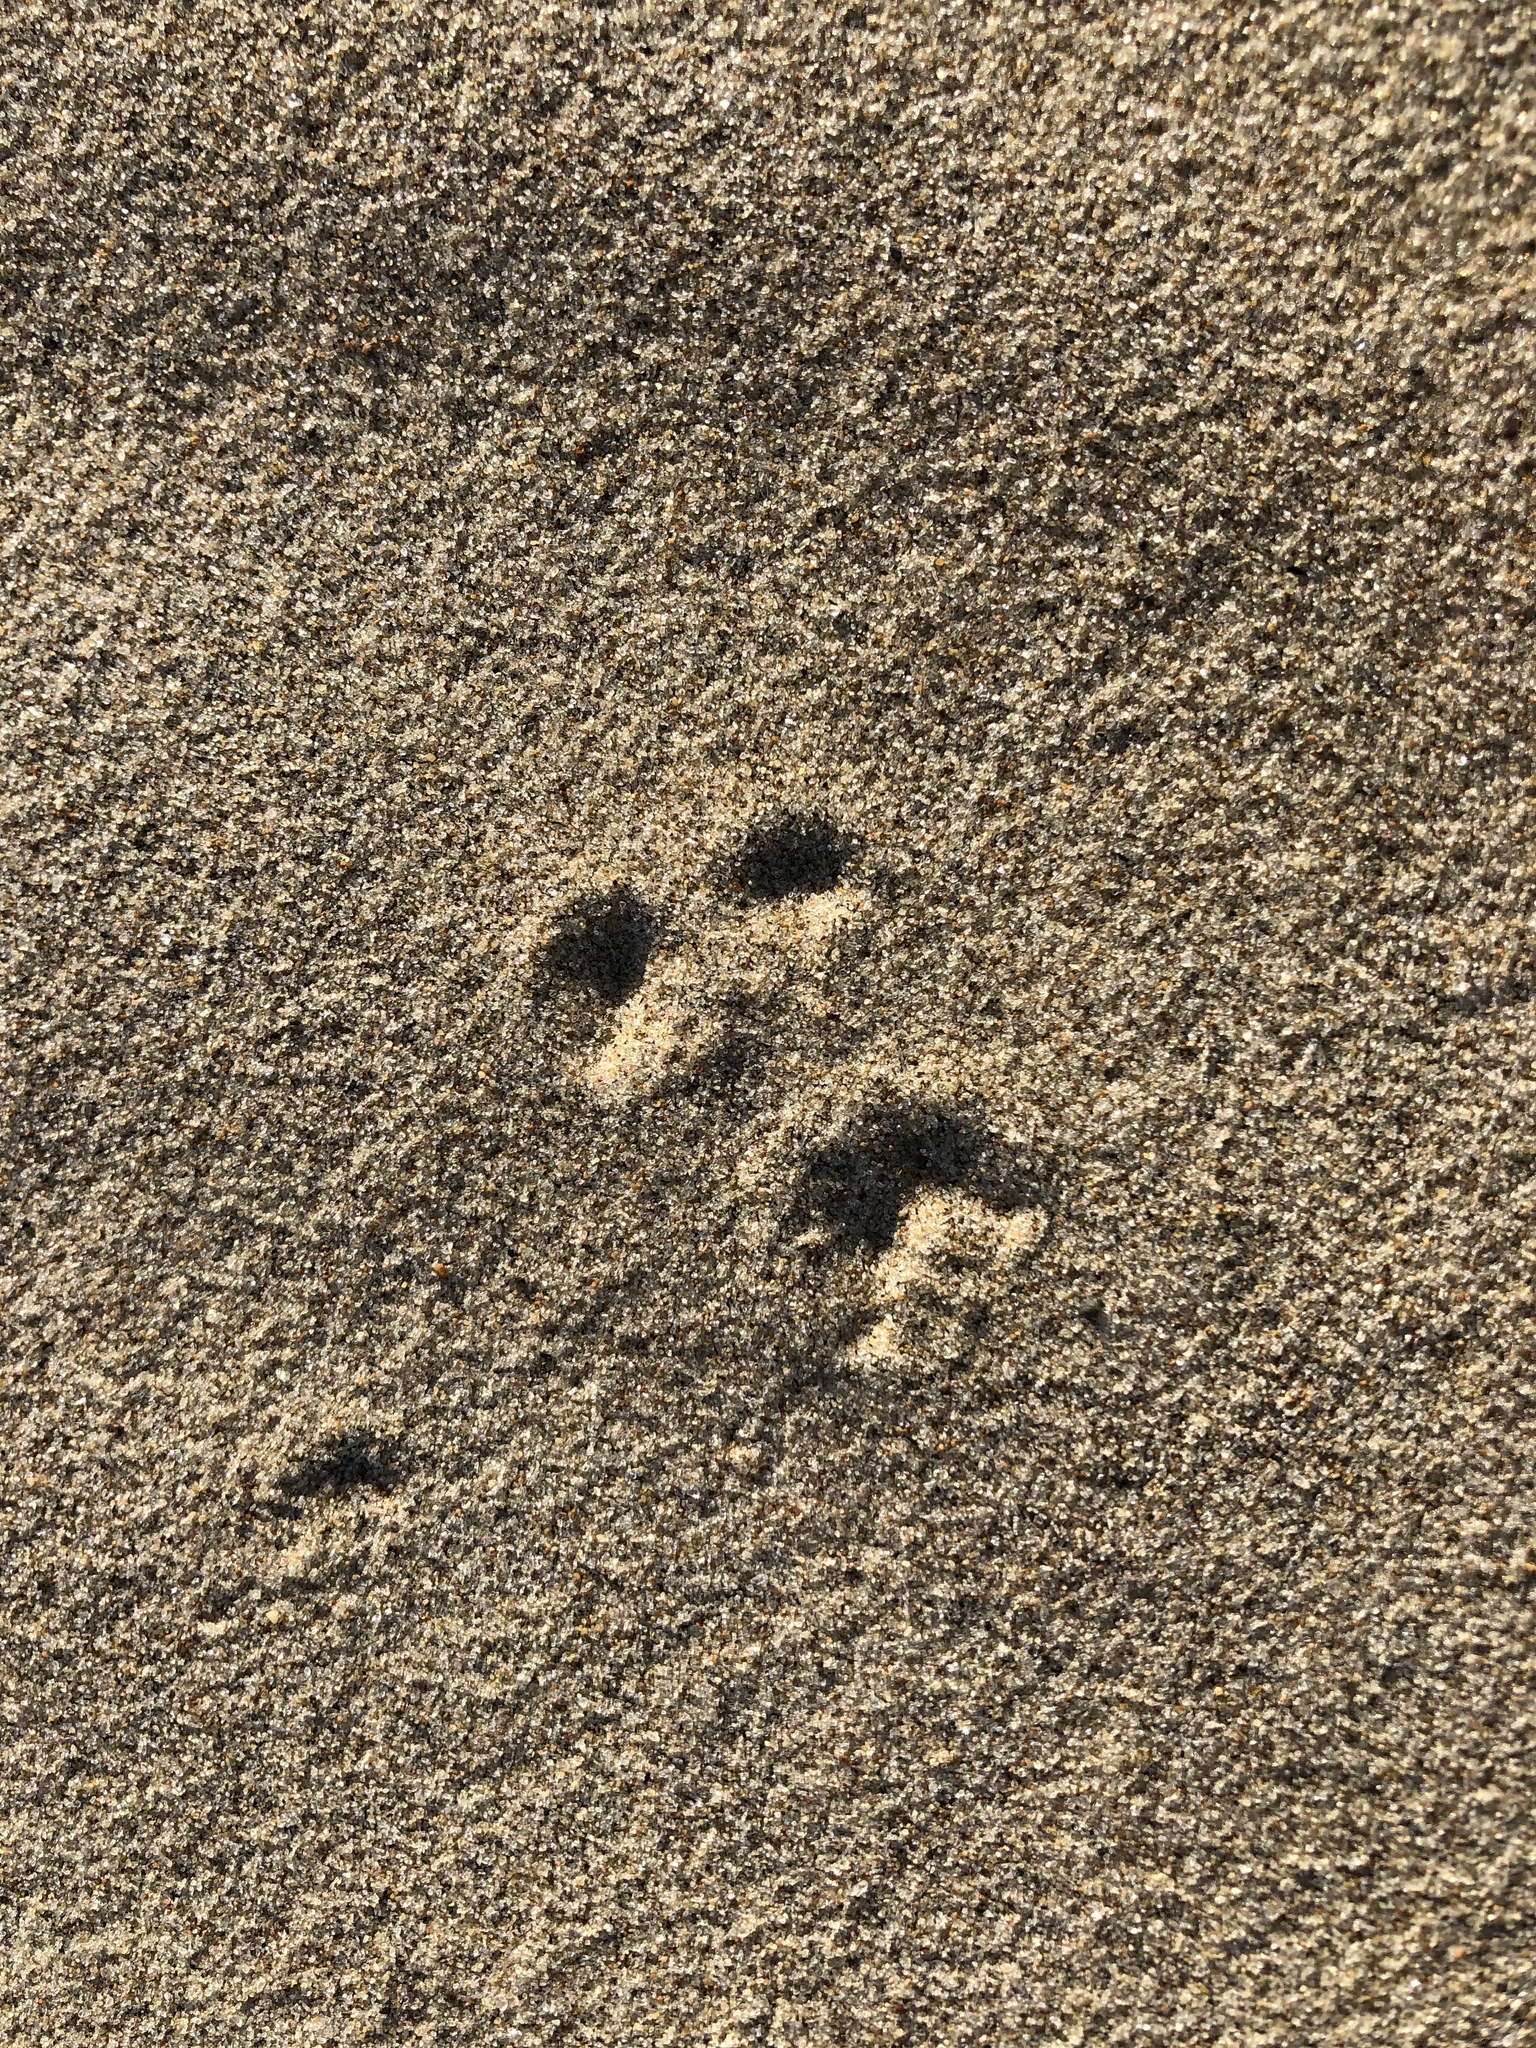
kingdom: Animalia
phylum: Chordata
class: Mammalia
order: Lagomorpha
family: Leporidae
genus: Oryctolagus
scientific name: Oryctolagus cuniculus
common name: European rabbit
